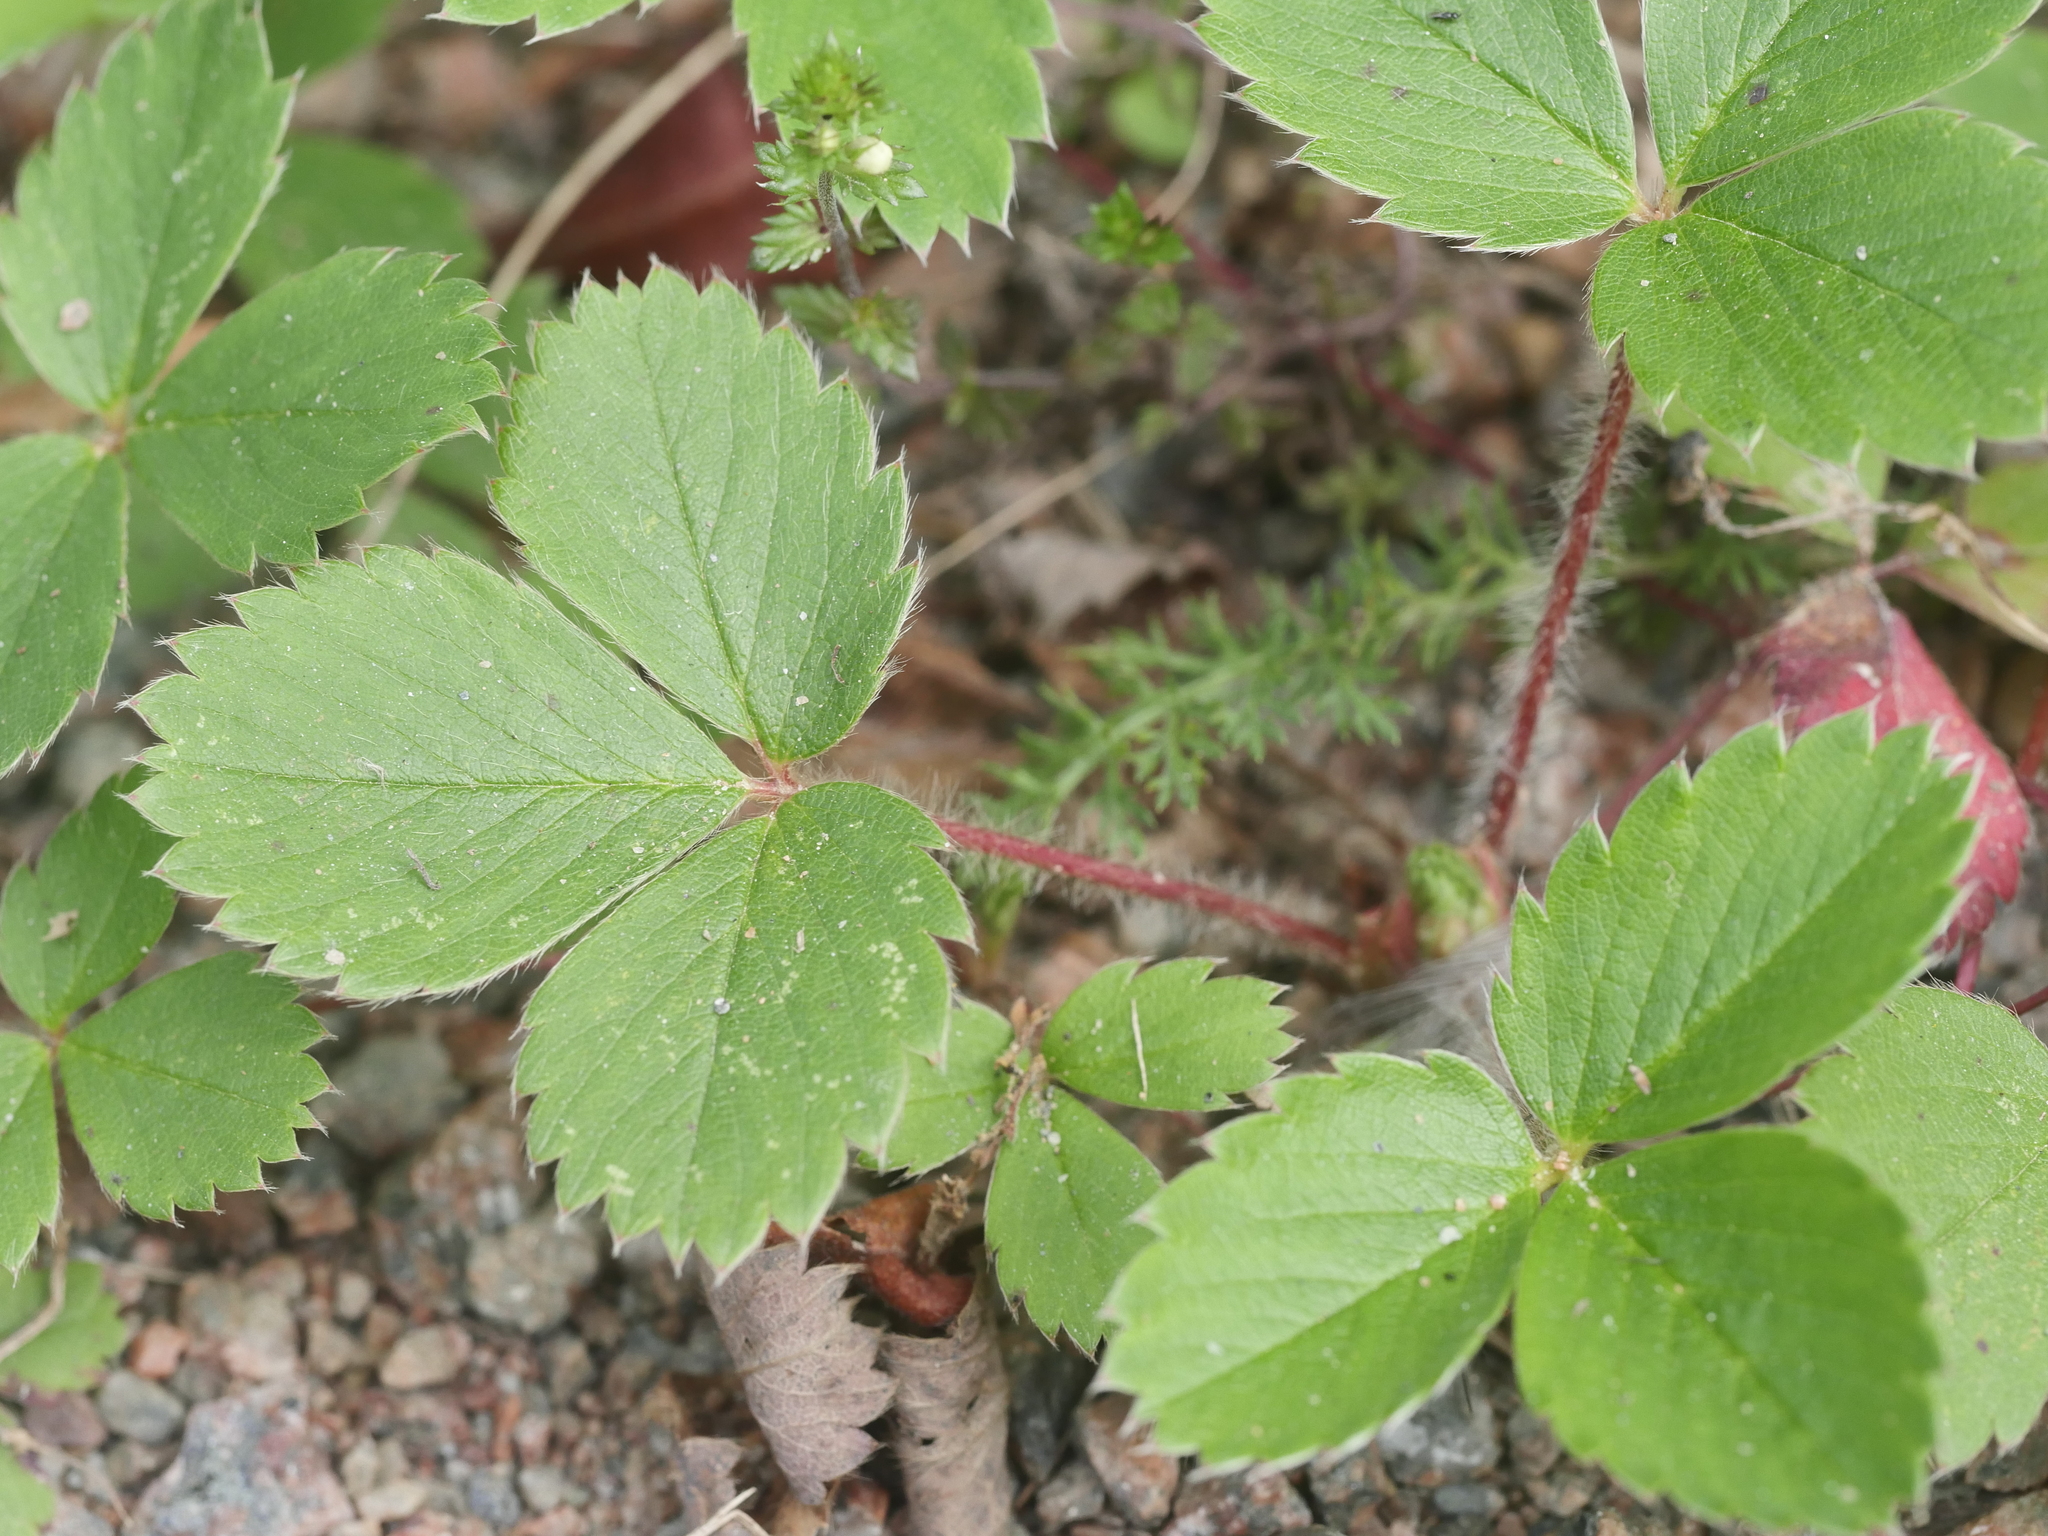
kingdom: Plantae
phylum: Tracheophyta
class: Magnoliopsida
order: Rosales
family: Rosaceae
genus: Fragaria
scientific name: Fragaria virginiana
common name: Thickleaved wild strawberry
